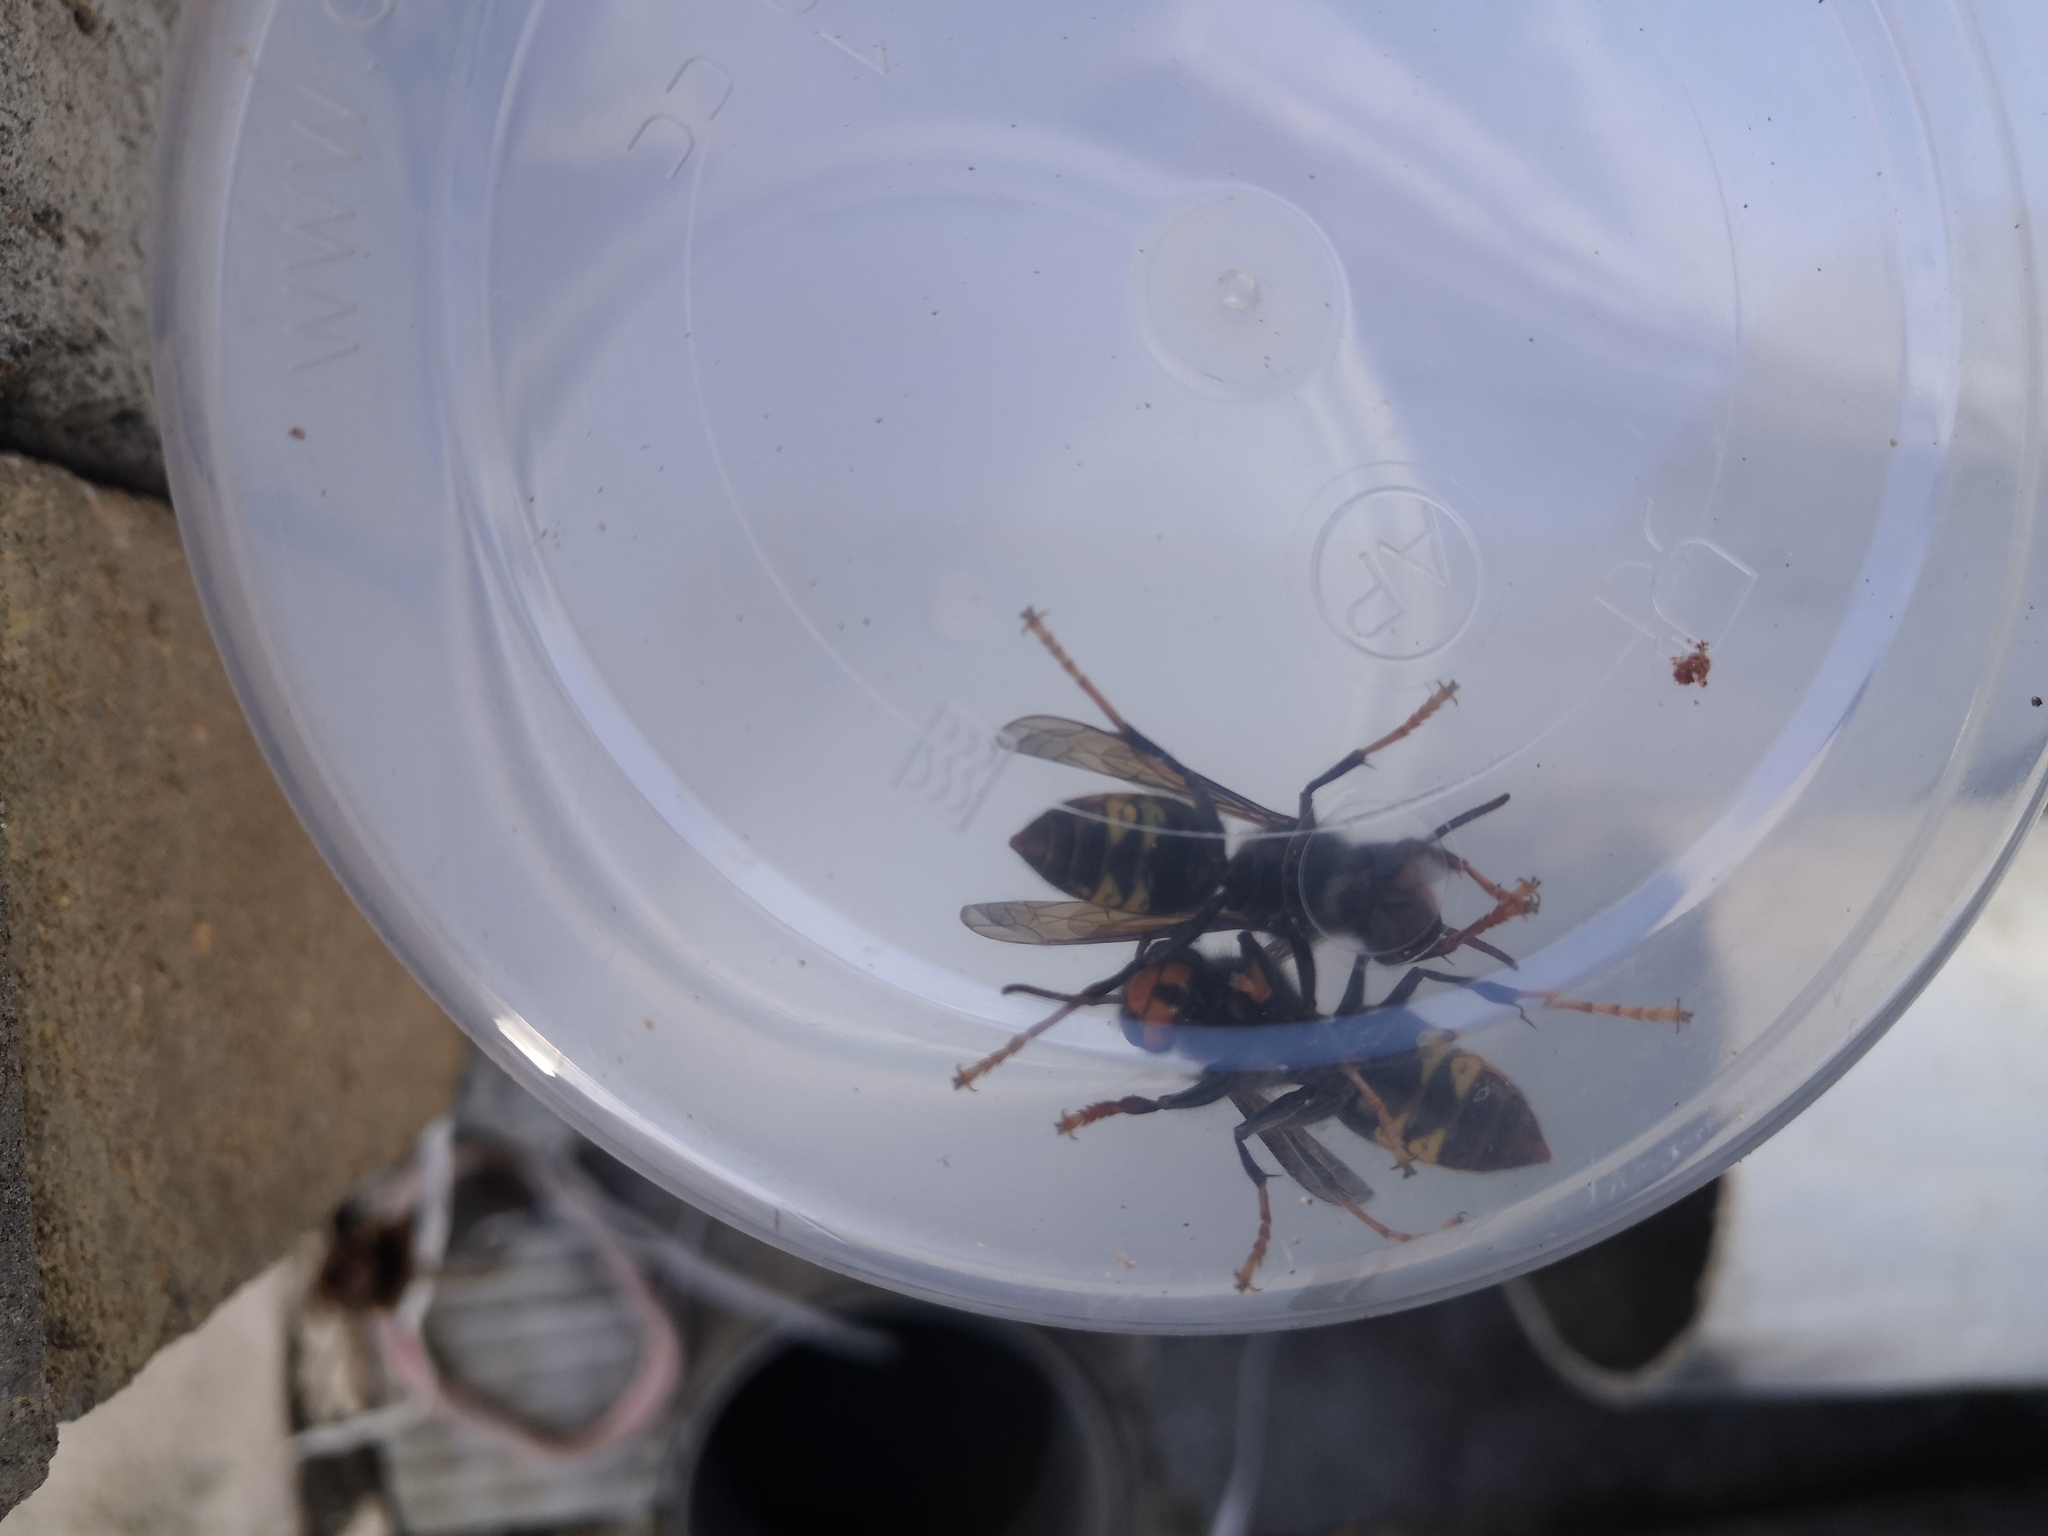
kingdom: Animalia
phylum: Arthropoda
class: Insecta
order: Hymenoptera
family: Vespidae
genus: Vespa
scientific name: Vespa velutina
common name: Asian hornet
